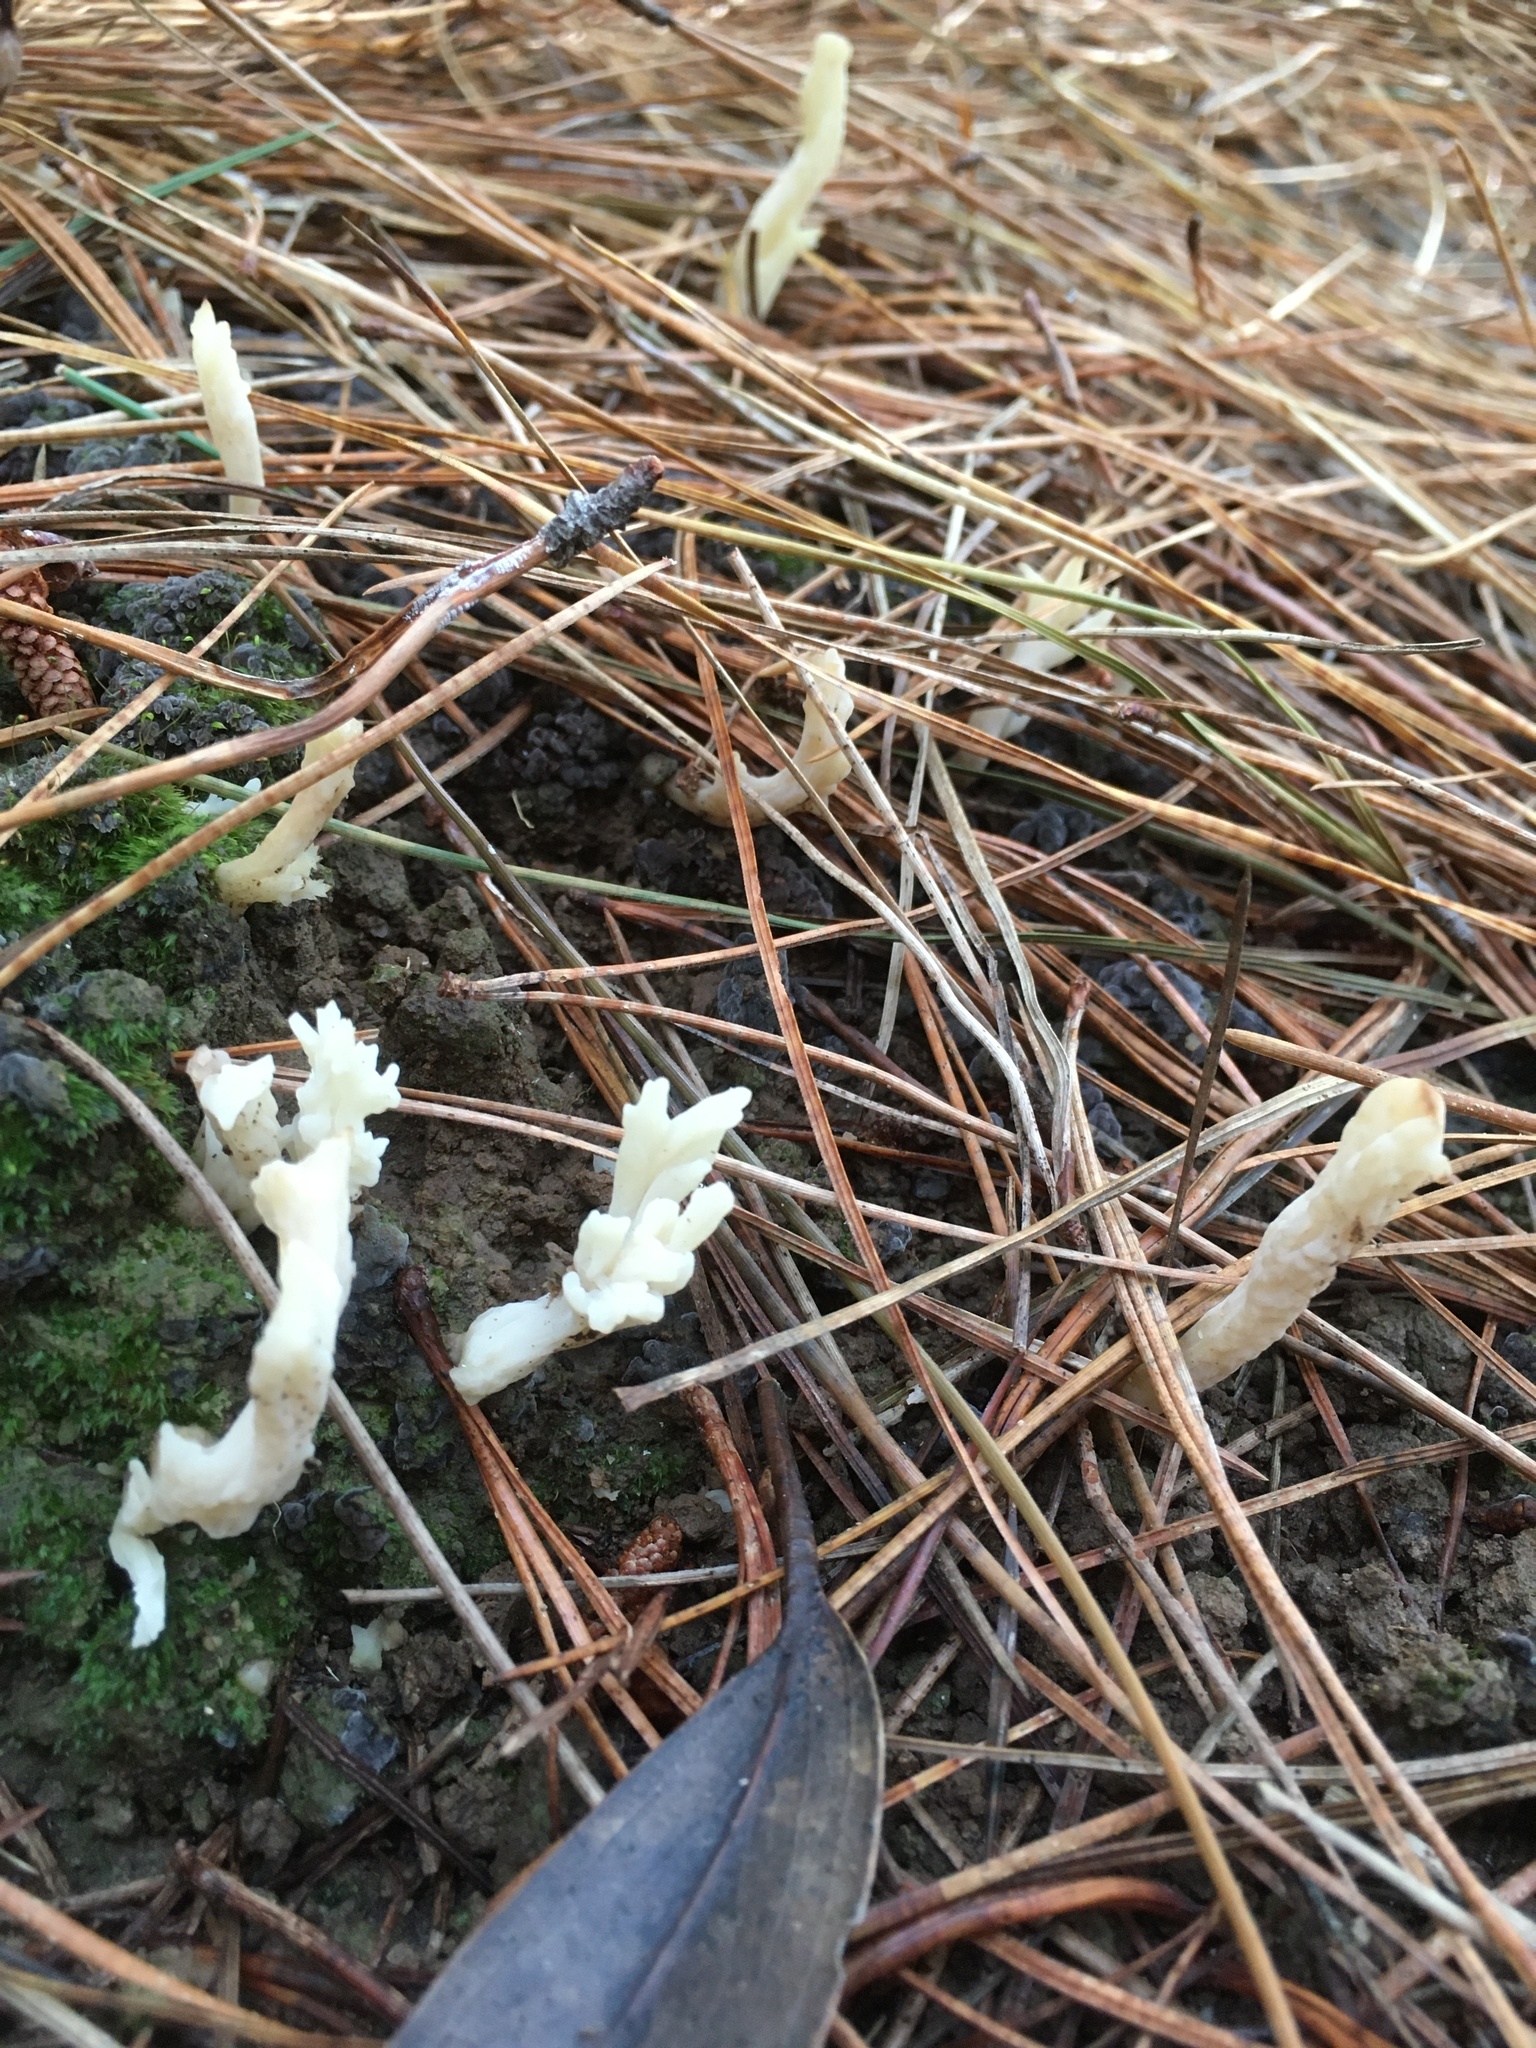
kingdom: Fungi
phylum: Basidiomycota
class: Agaricomycetes
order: Cantharellales
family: Hydnaceae
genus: Clavulina
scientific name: Clavulina rugosa
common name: Wrinkled club
